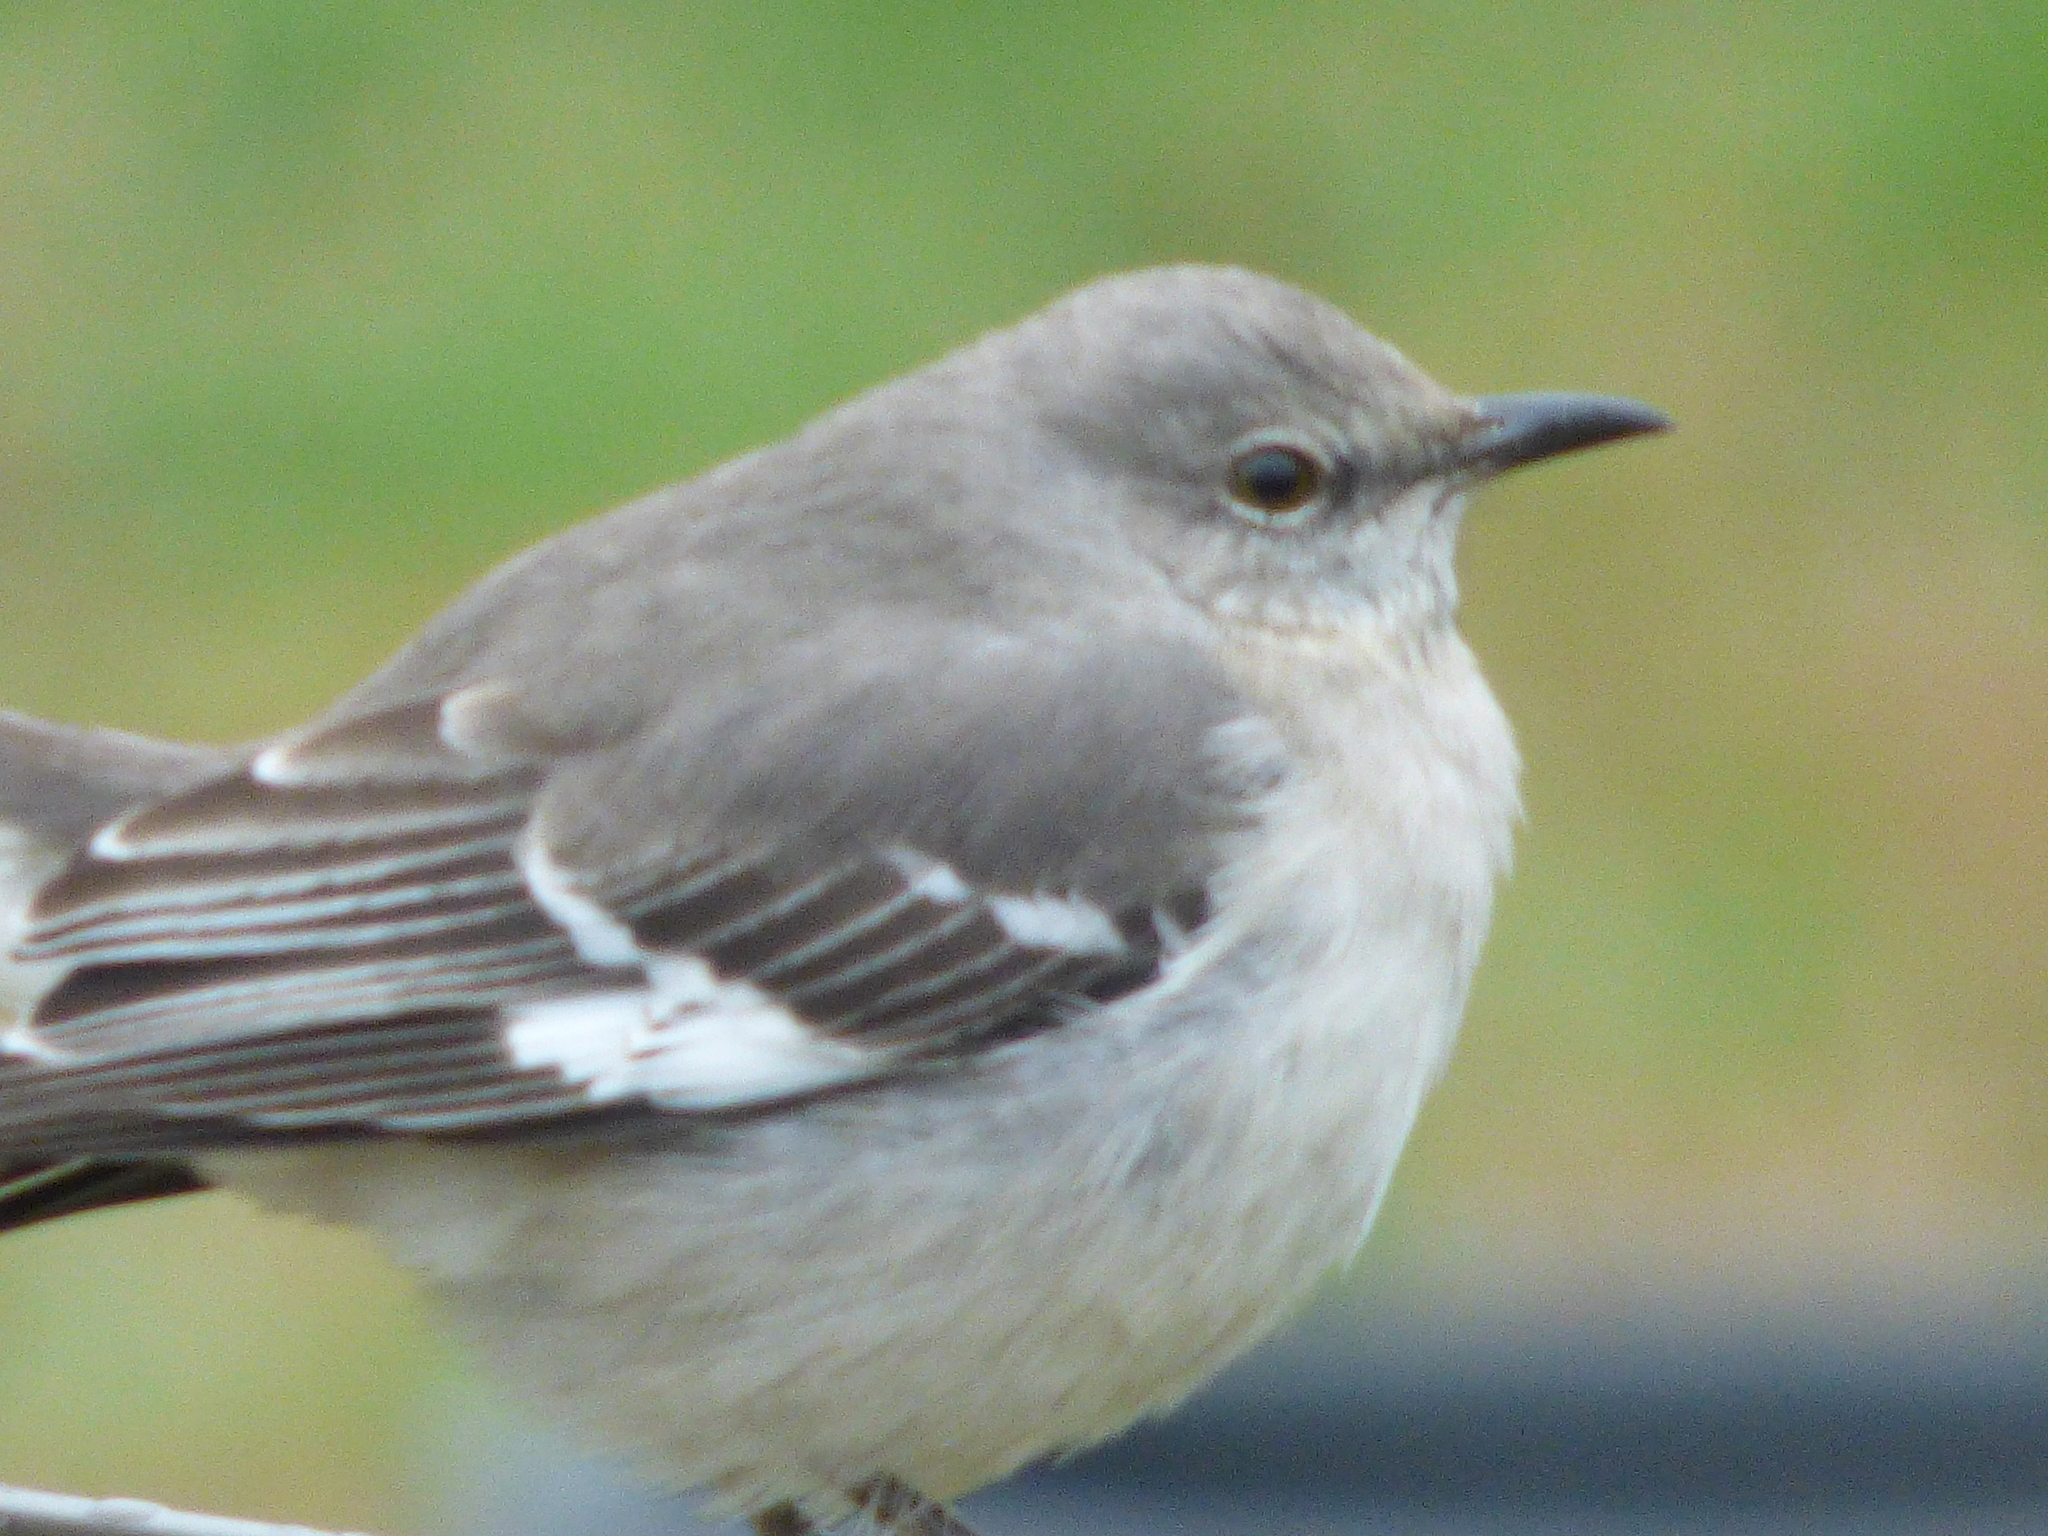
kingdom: Animalia
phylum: Chordata
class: Aves
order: Passeriformes
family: Mimidae
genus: Mimus
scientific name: Mimus polyglottos
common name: Northern mockingbird
